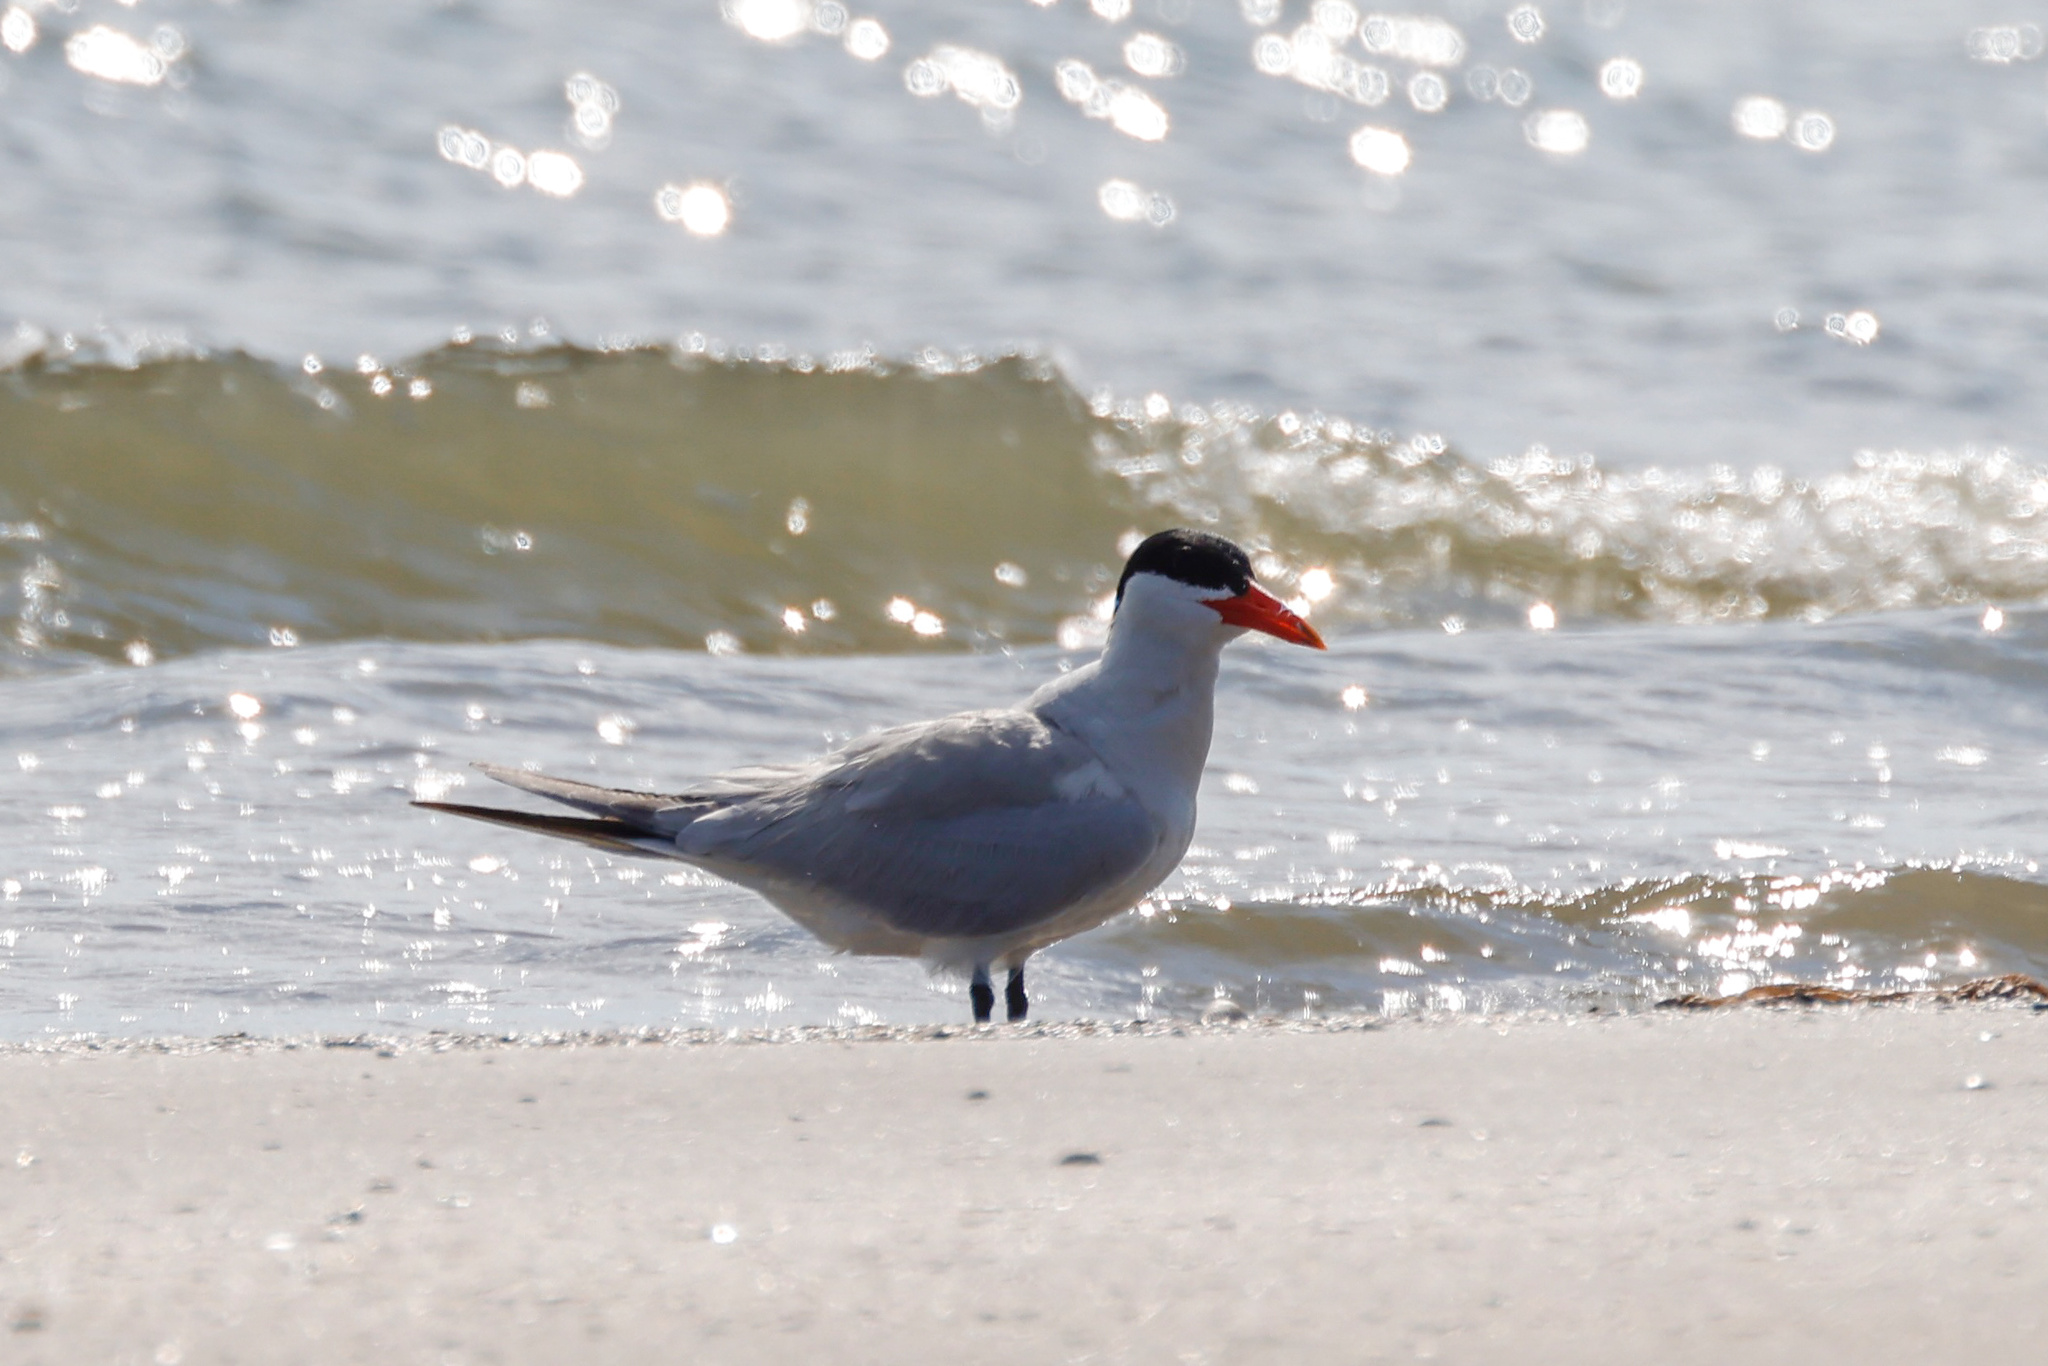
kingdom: Animalia
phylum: Chordata
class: Aves
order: Charadriiformes
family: Laridae
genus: Hydroprogne
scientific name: Hydroprogne caspia
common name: Caspian tern
